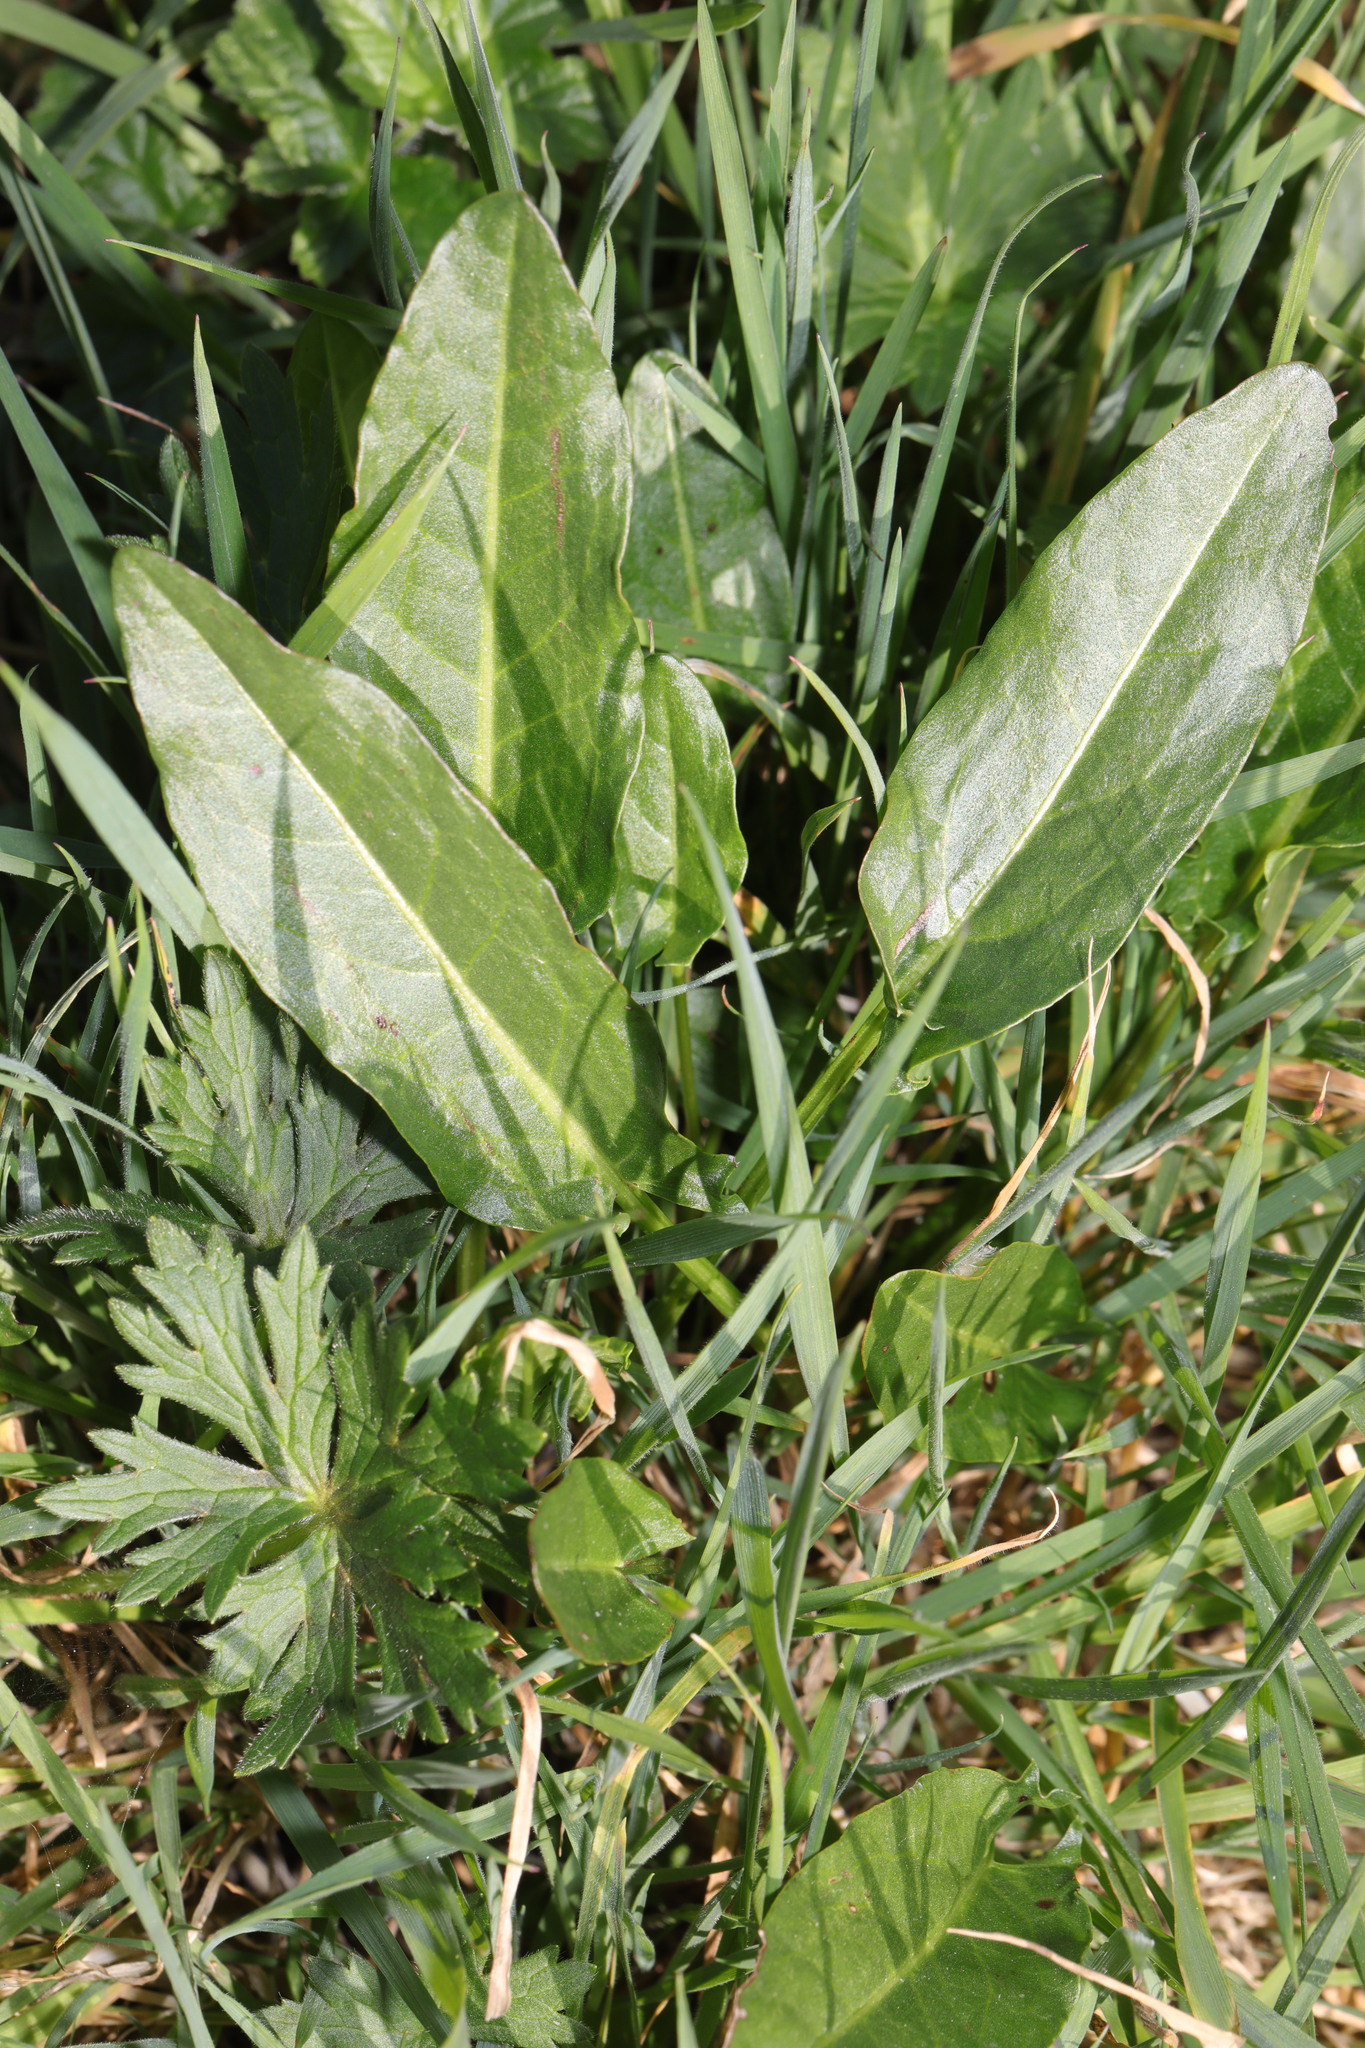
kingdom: Plantae
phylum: Tracheophyta
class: Magnoliopsida
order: Caryophyllales
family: Polygonaceae
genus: Rumex
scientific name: Rumex acetosa
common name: Garden sorrel
